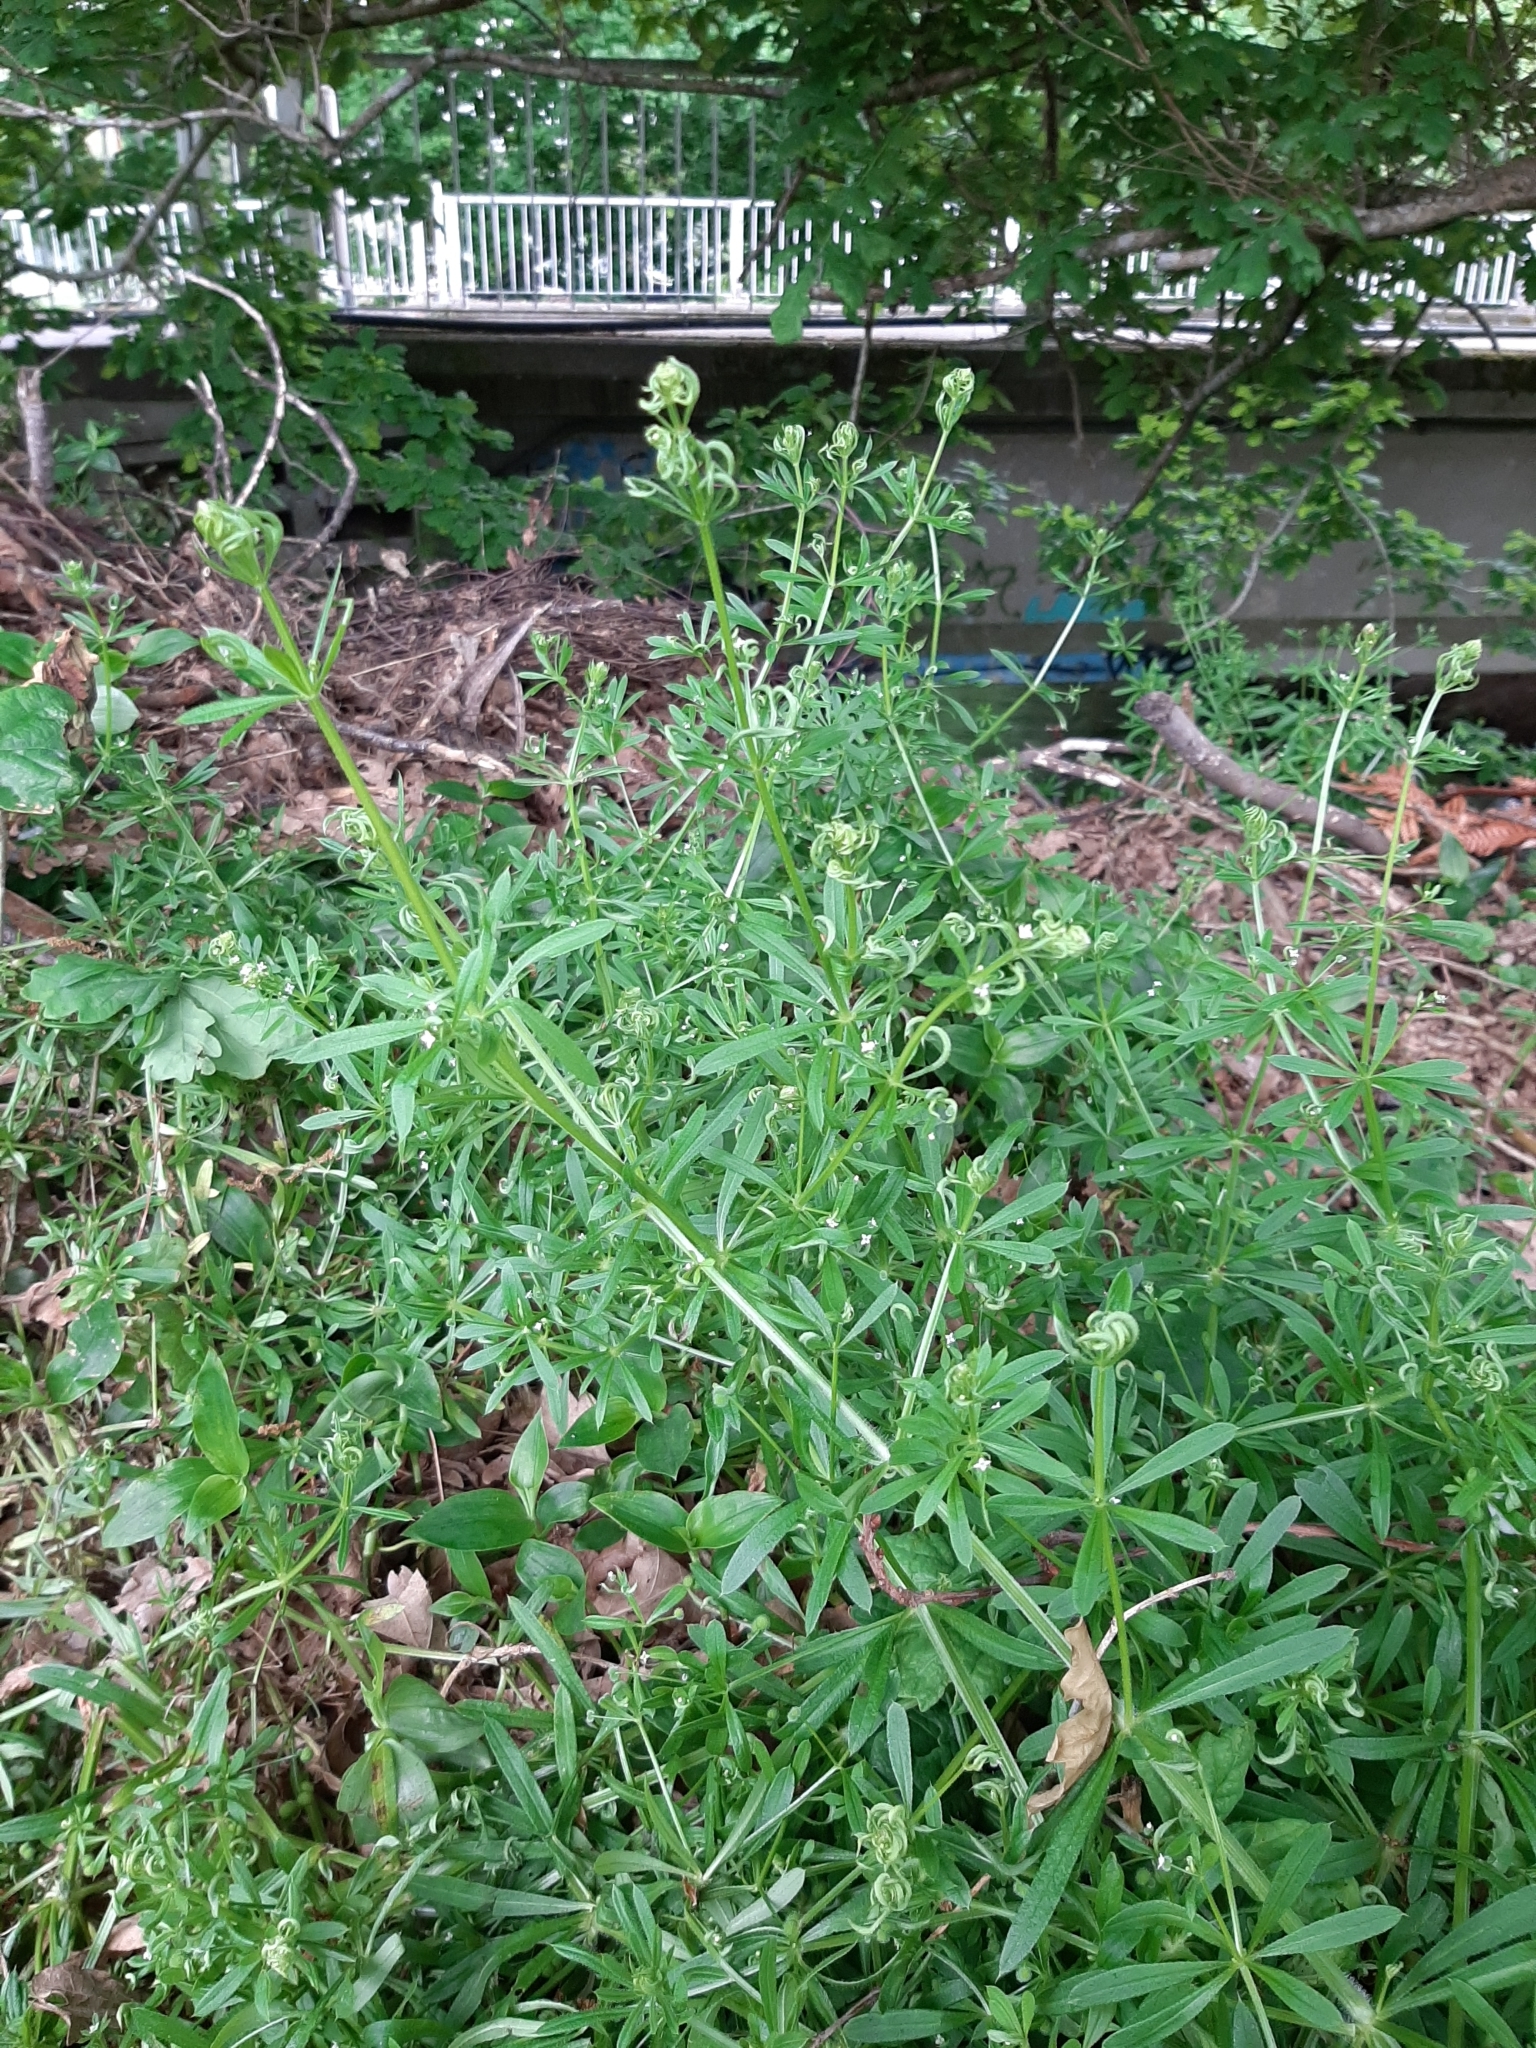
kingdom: Plantae
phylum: Tracheophyta
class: Magnoliopsida
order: Gentianales
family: Rubiaceae
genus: Galium
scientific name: Galium aparine
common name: Cleavers
